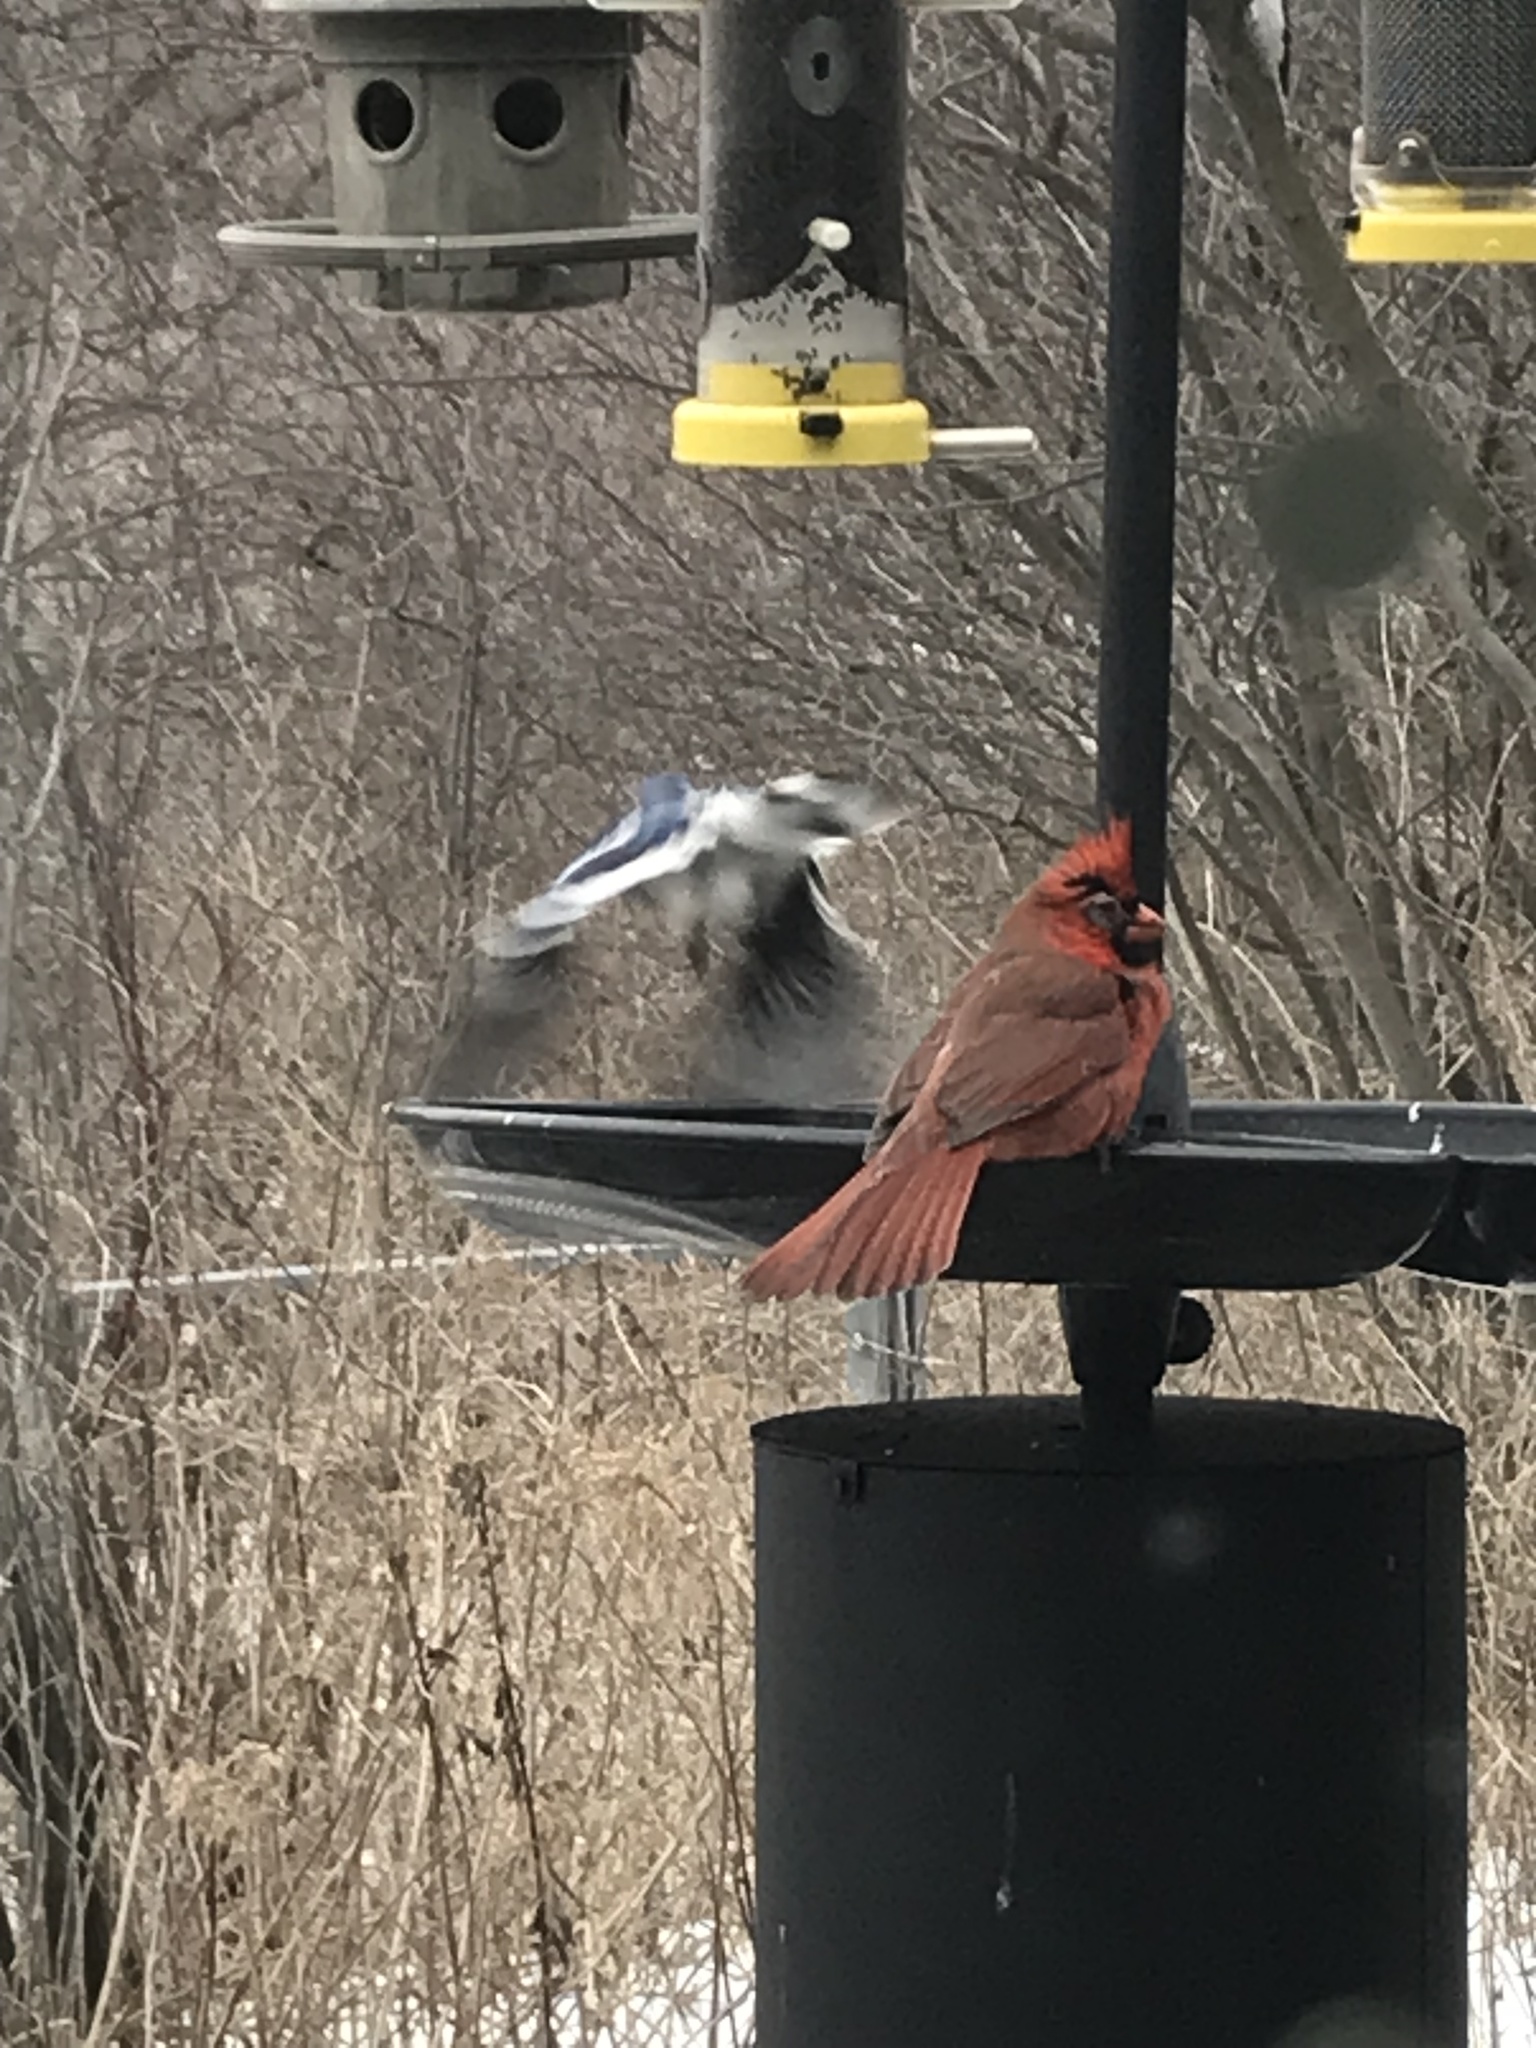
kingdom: Animalia
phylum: Chordata
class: Aves
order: Passeriformes
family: Corvidae
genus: Cyanocitta
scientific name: Cyanocitta cristata
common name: Blue jay
